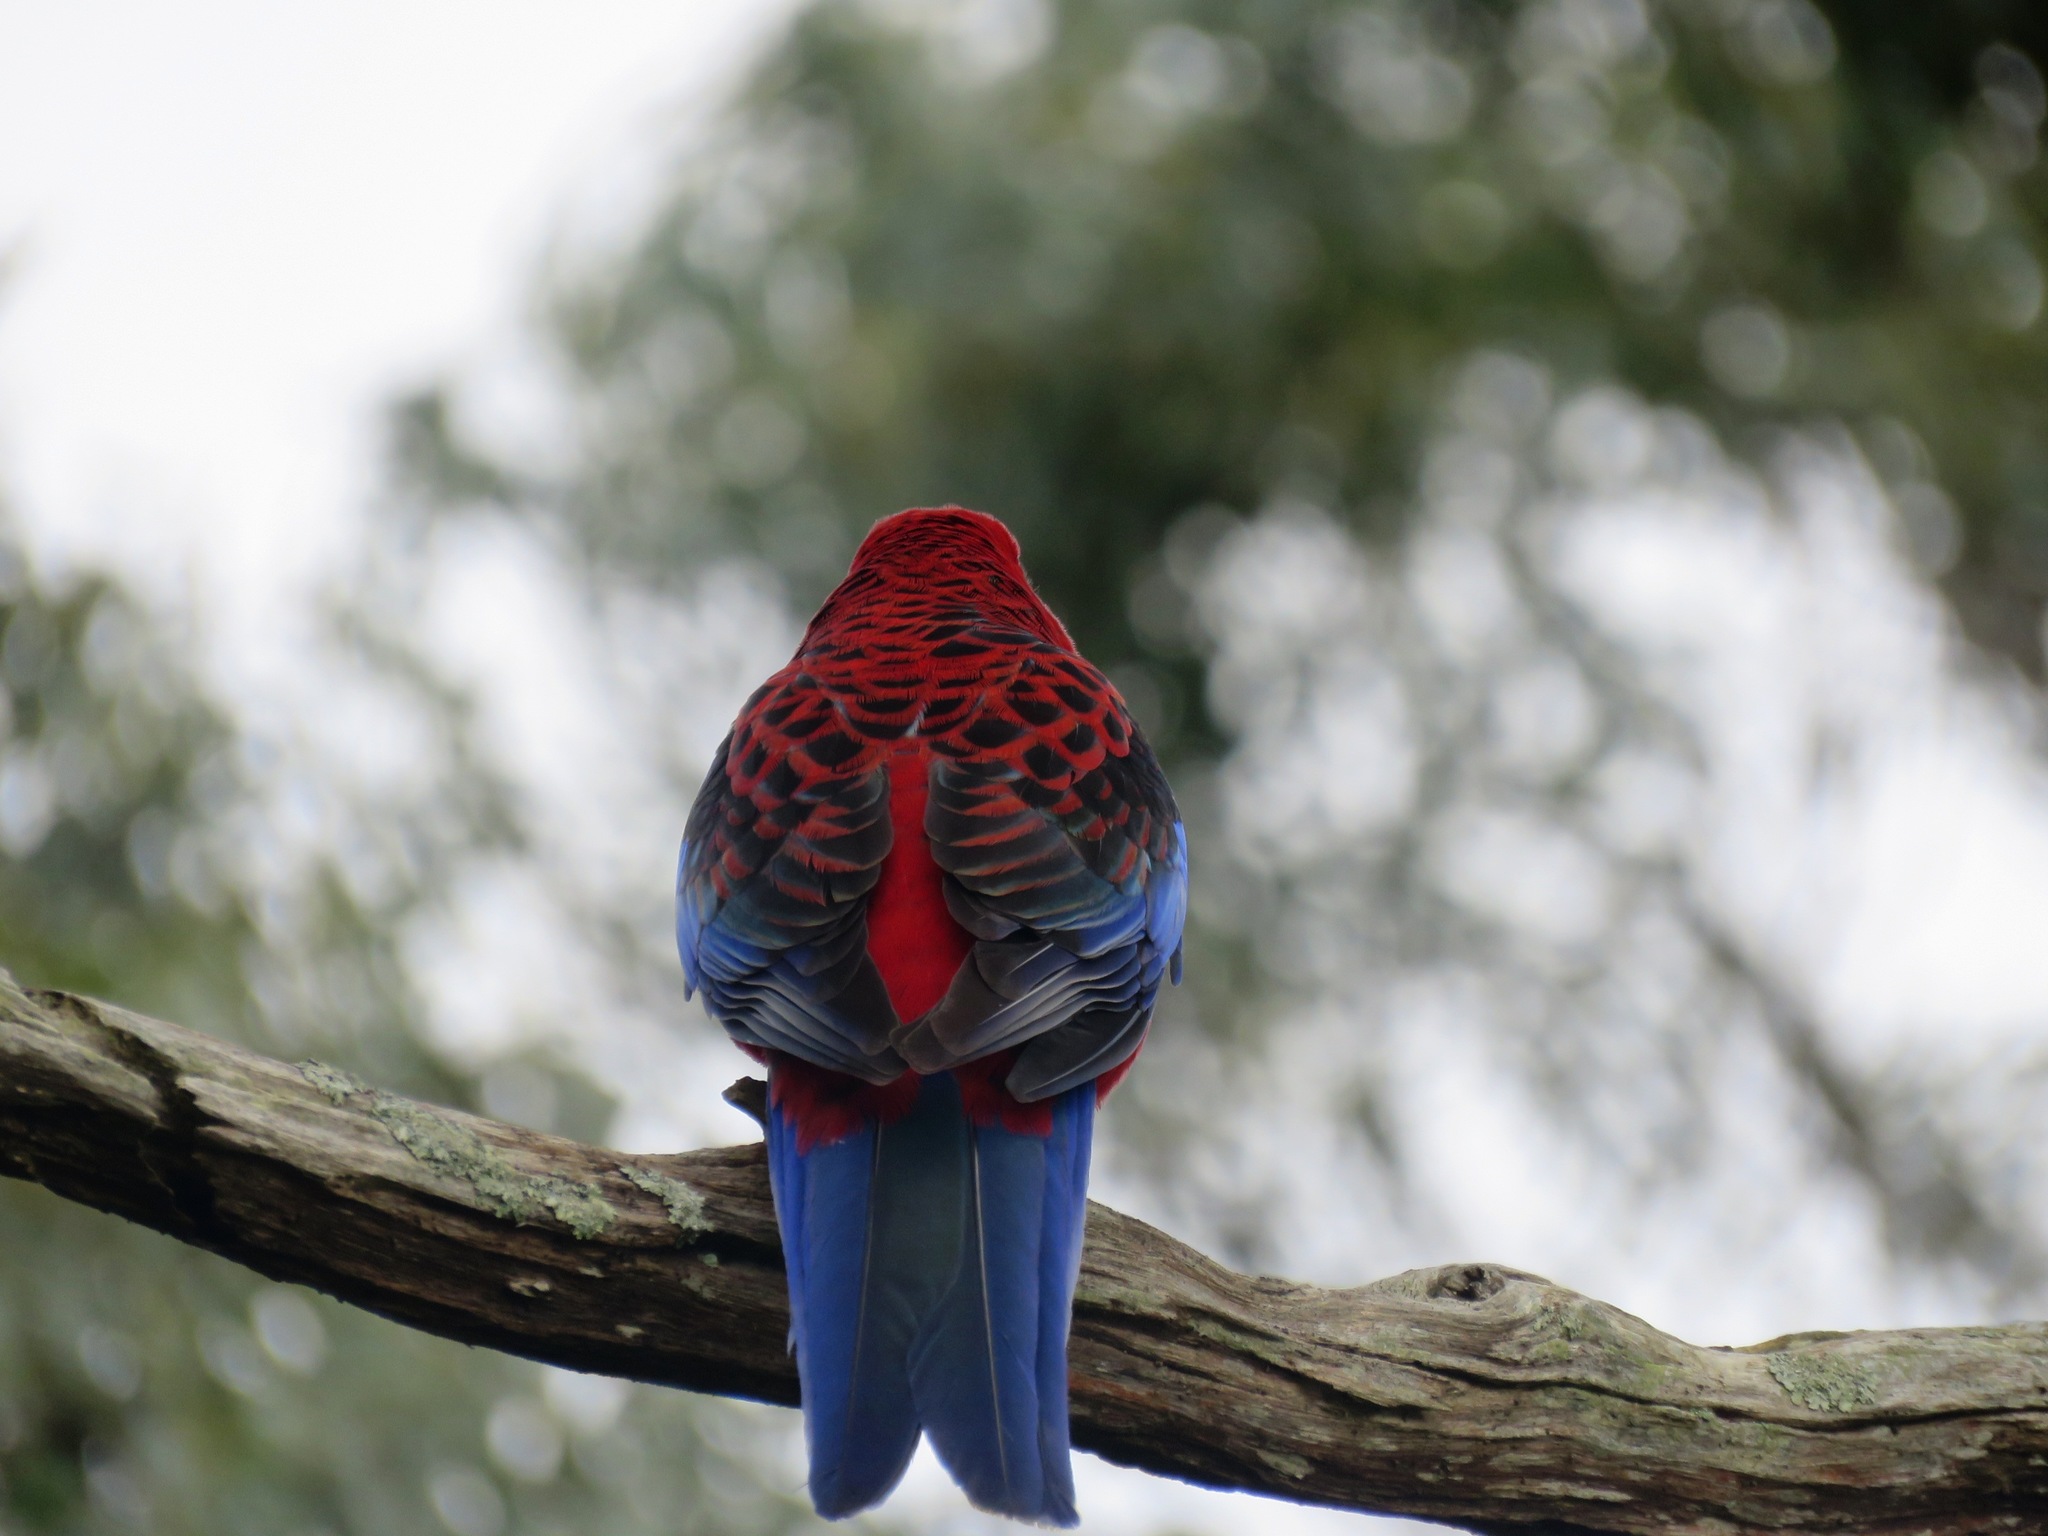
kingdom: Animalia
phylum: Chordata
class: Aves
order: Psittaciformes
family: Psittacidae
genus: Platycercus
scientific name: Platycercus elegans
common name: Crimson rosella
